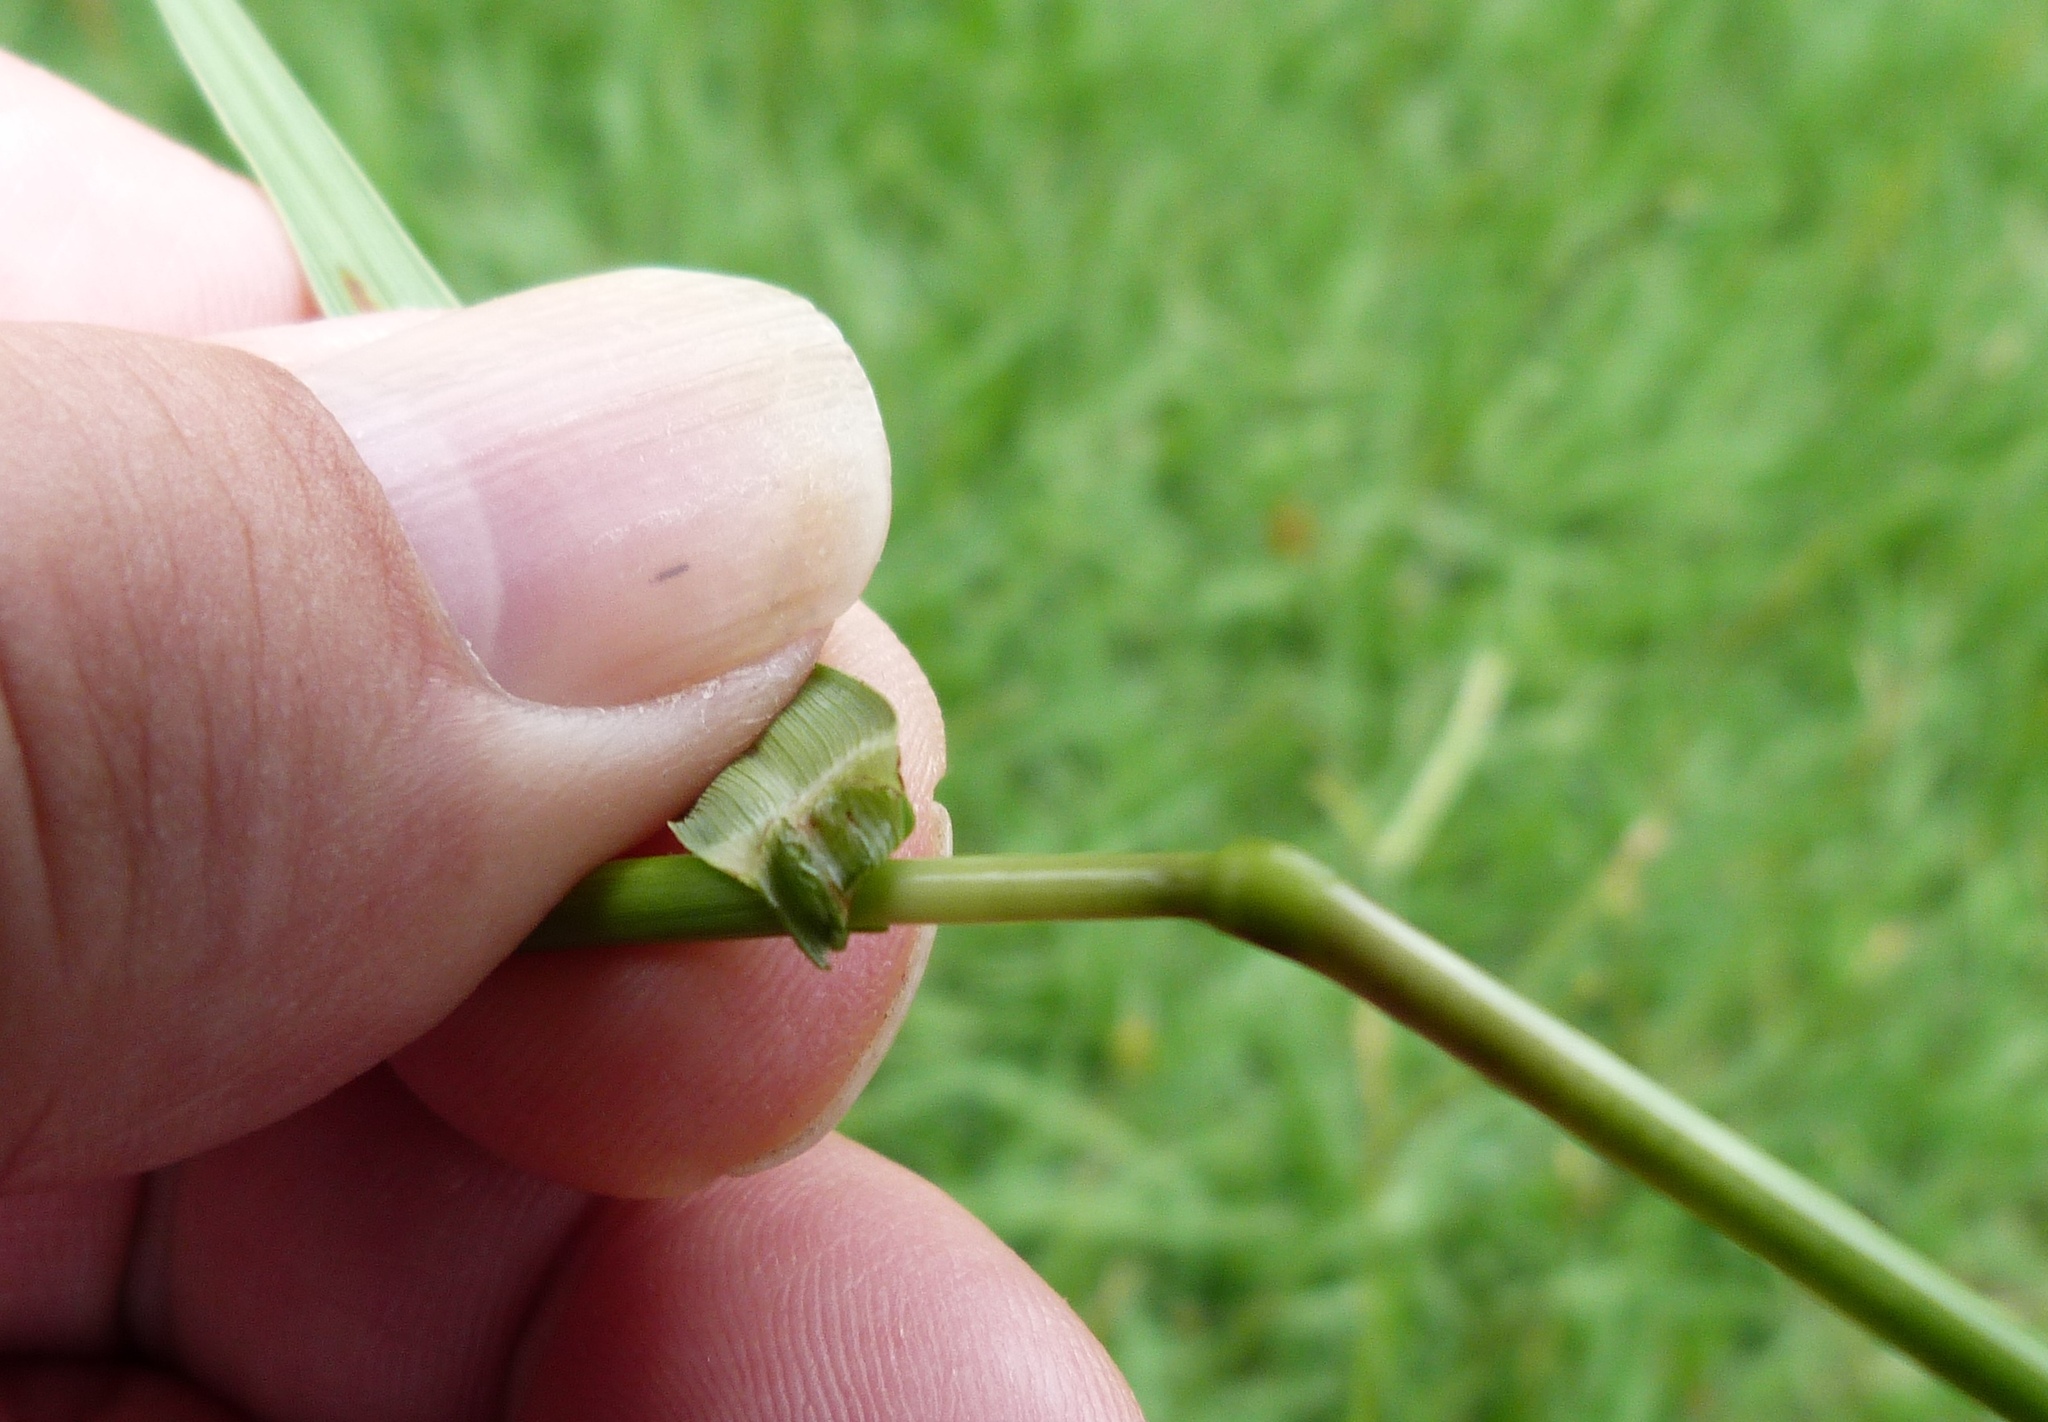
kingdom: Plantae
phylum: Tracheophyta
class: Liliopsida
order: Poales
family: Poaceae
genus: Paspalum
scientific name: Paspalum notatum
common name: Bahiagrass
